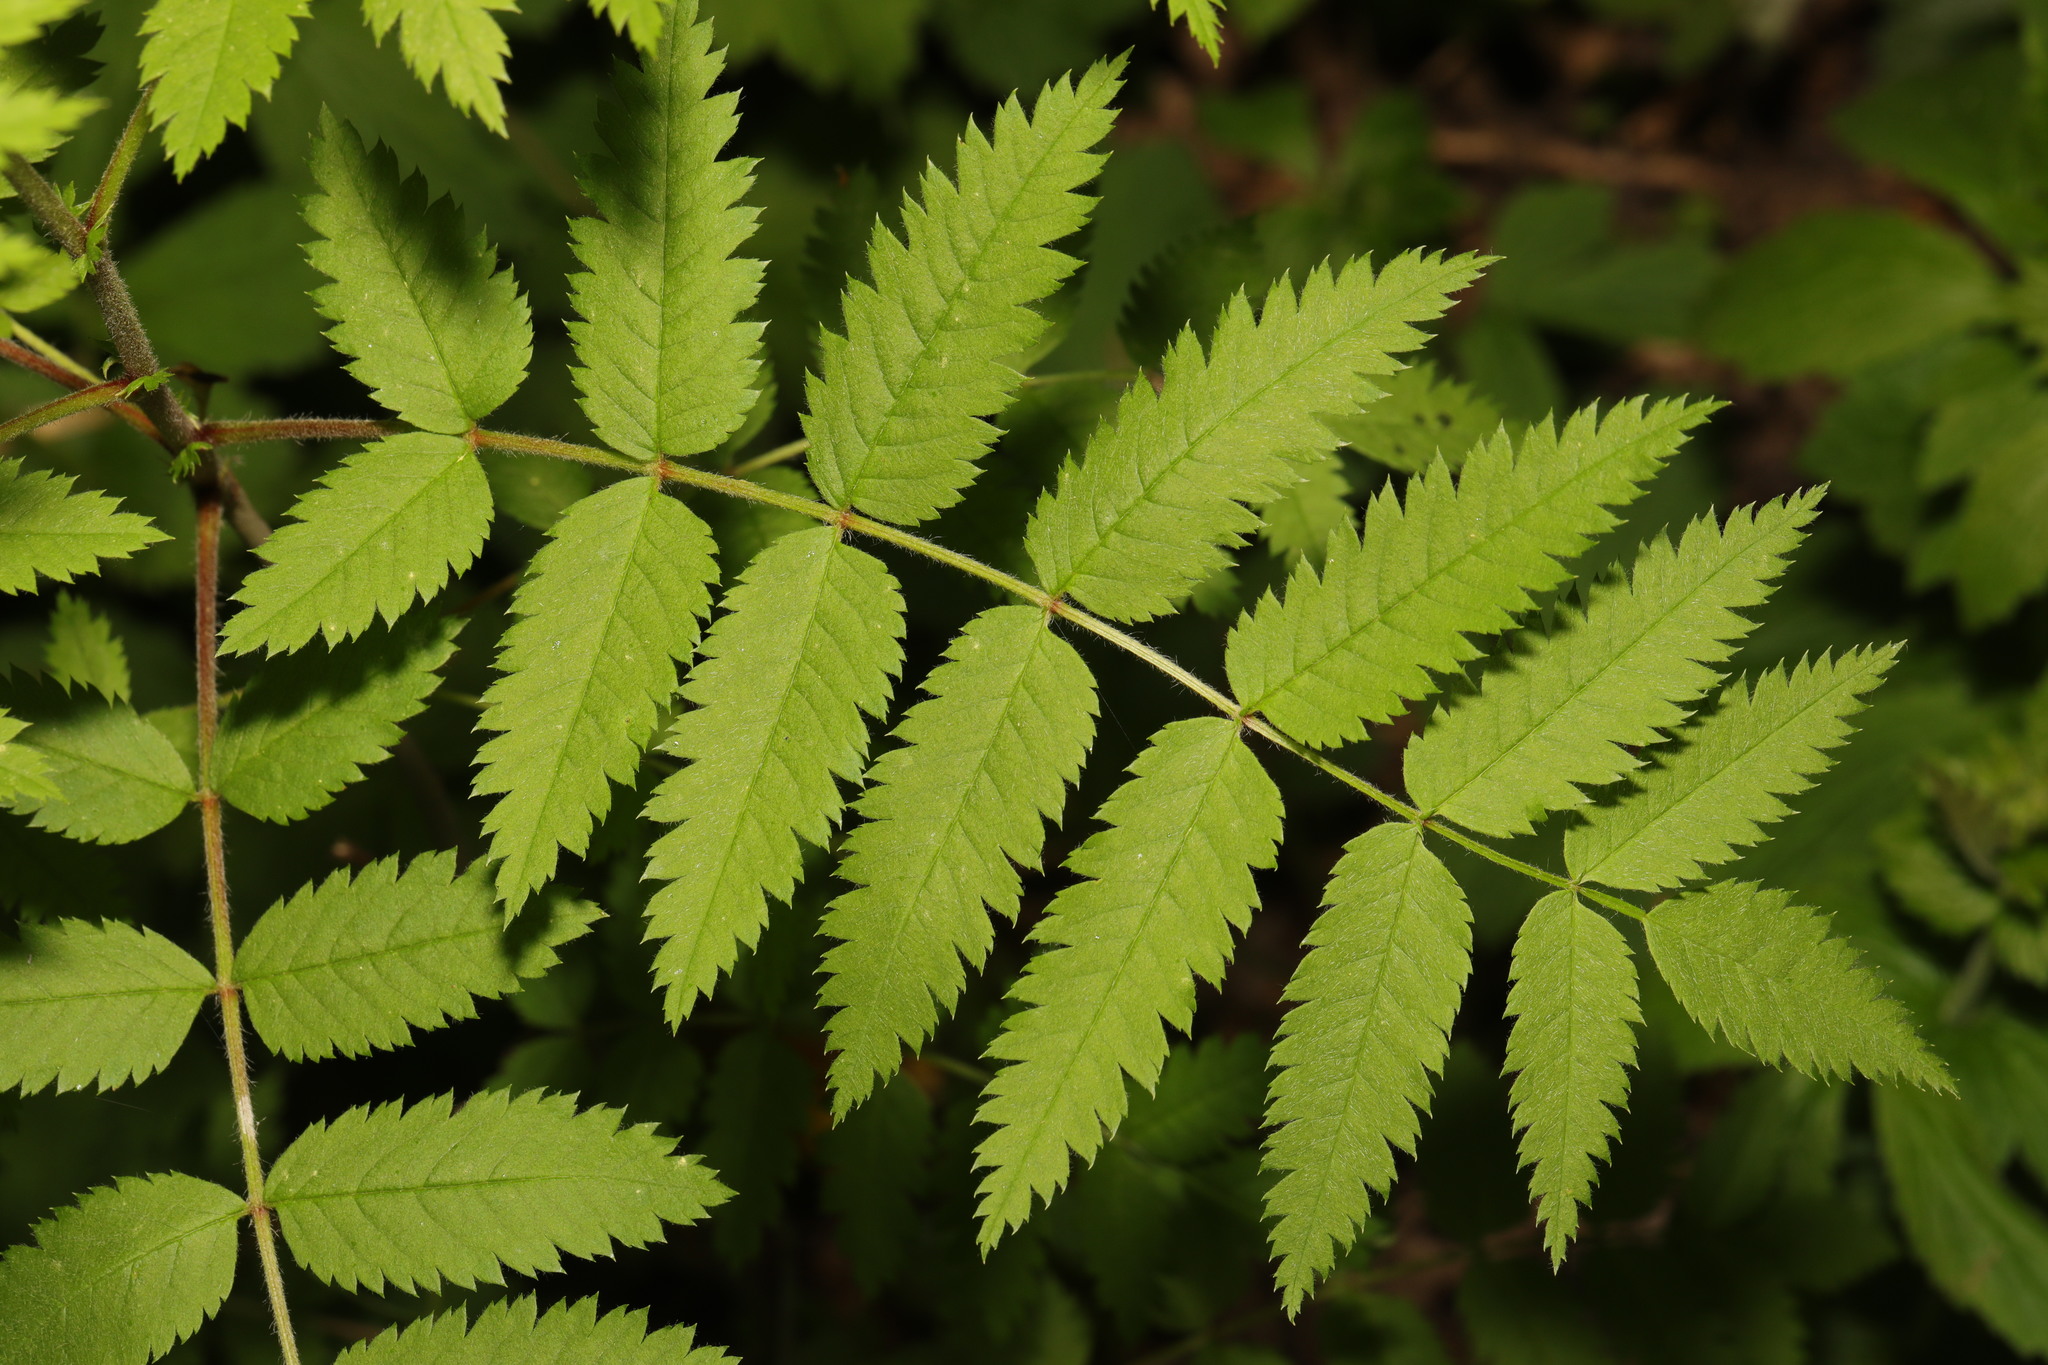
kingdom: Plantae
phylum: Tracheophyta
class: Magnoliopsida
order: Rosales
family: Rosaceae
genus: Sorbus
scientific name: Sorbus aucuparia
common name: Rowan
